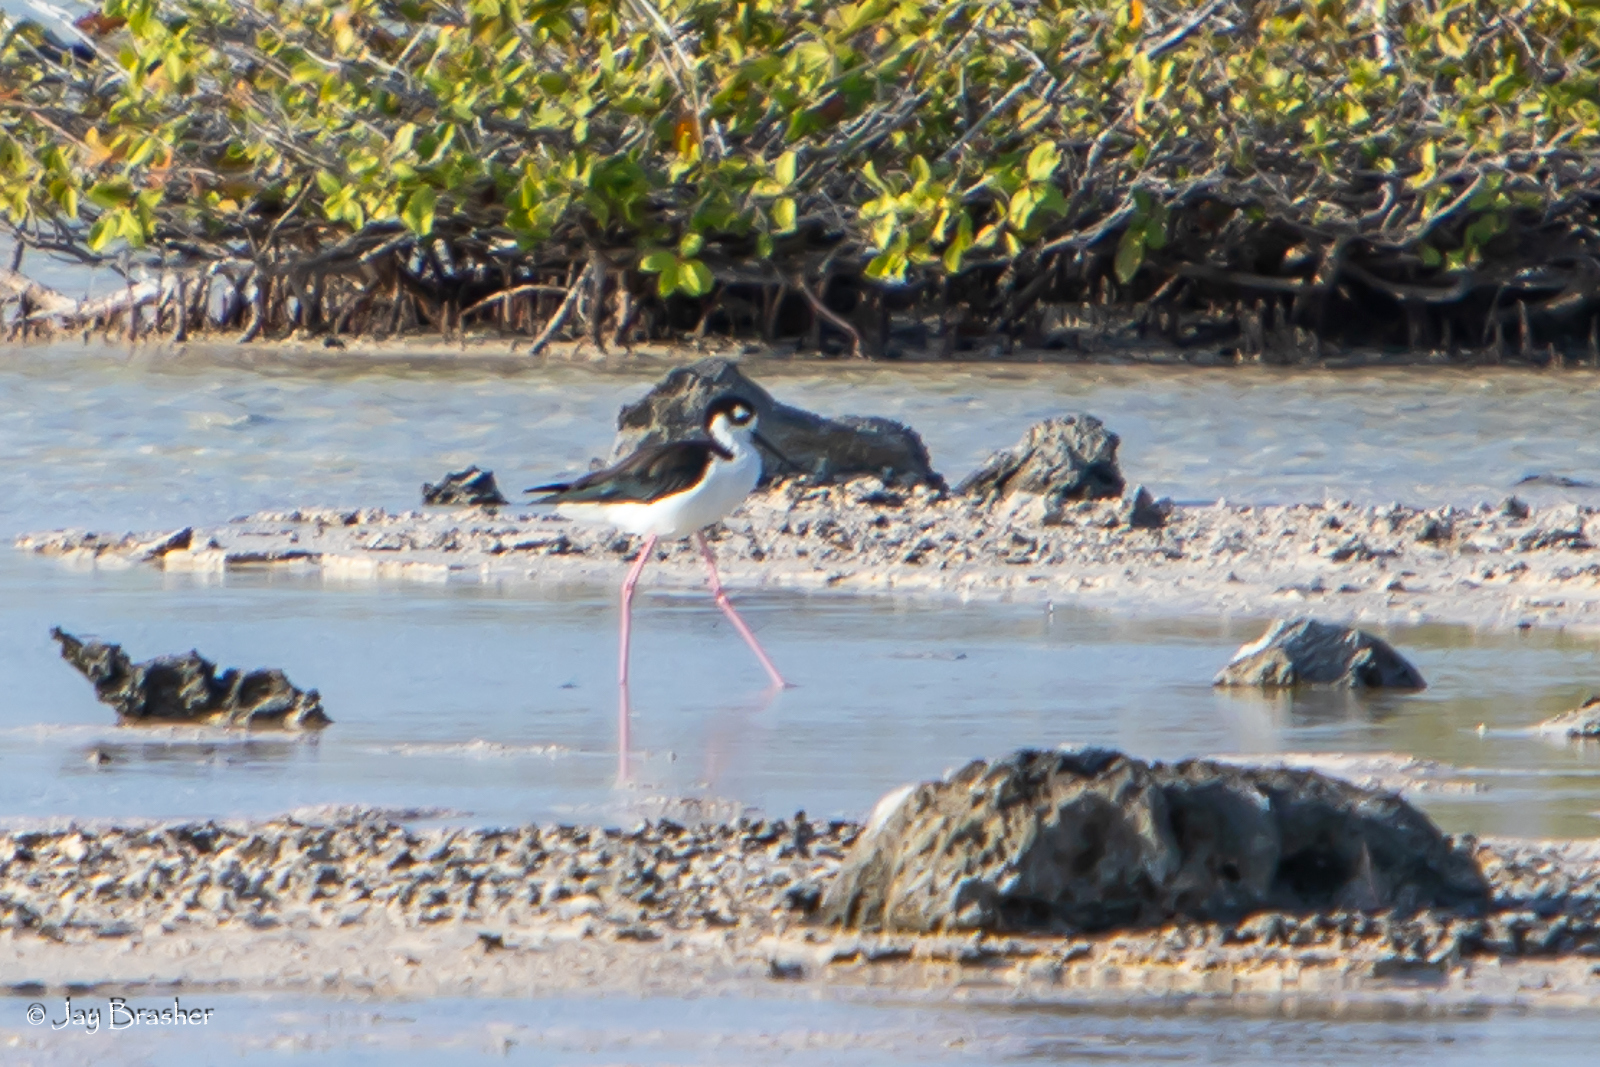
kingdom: Animalia
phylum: Chordata
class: Aves
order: Charadriiformes
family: Recurvirostridae
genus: Himantopus
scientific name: Himantopus mexicanus
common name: Black-necked stilt
